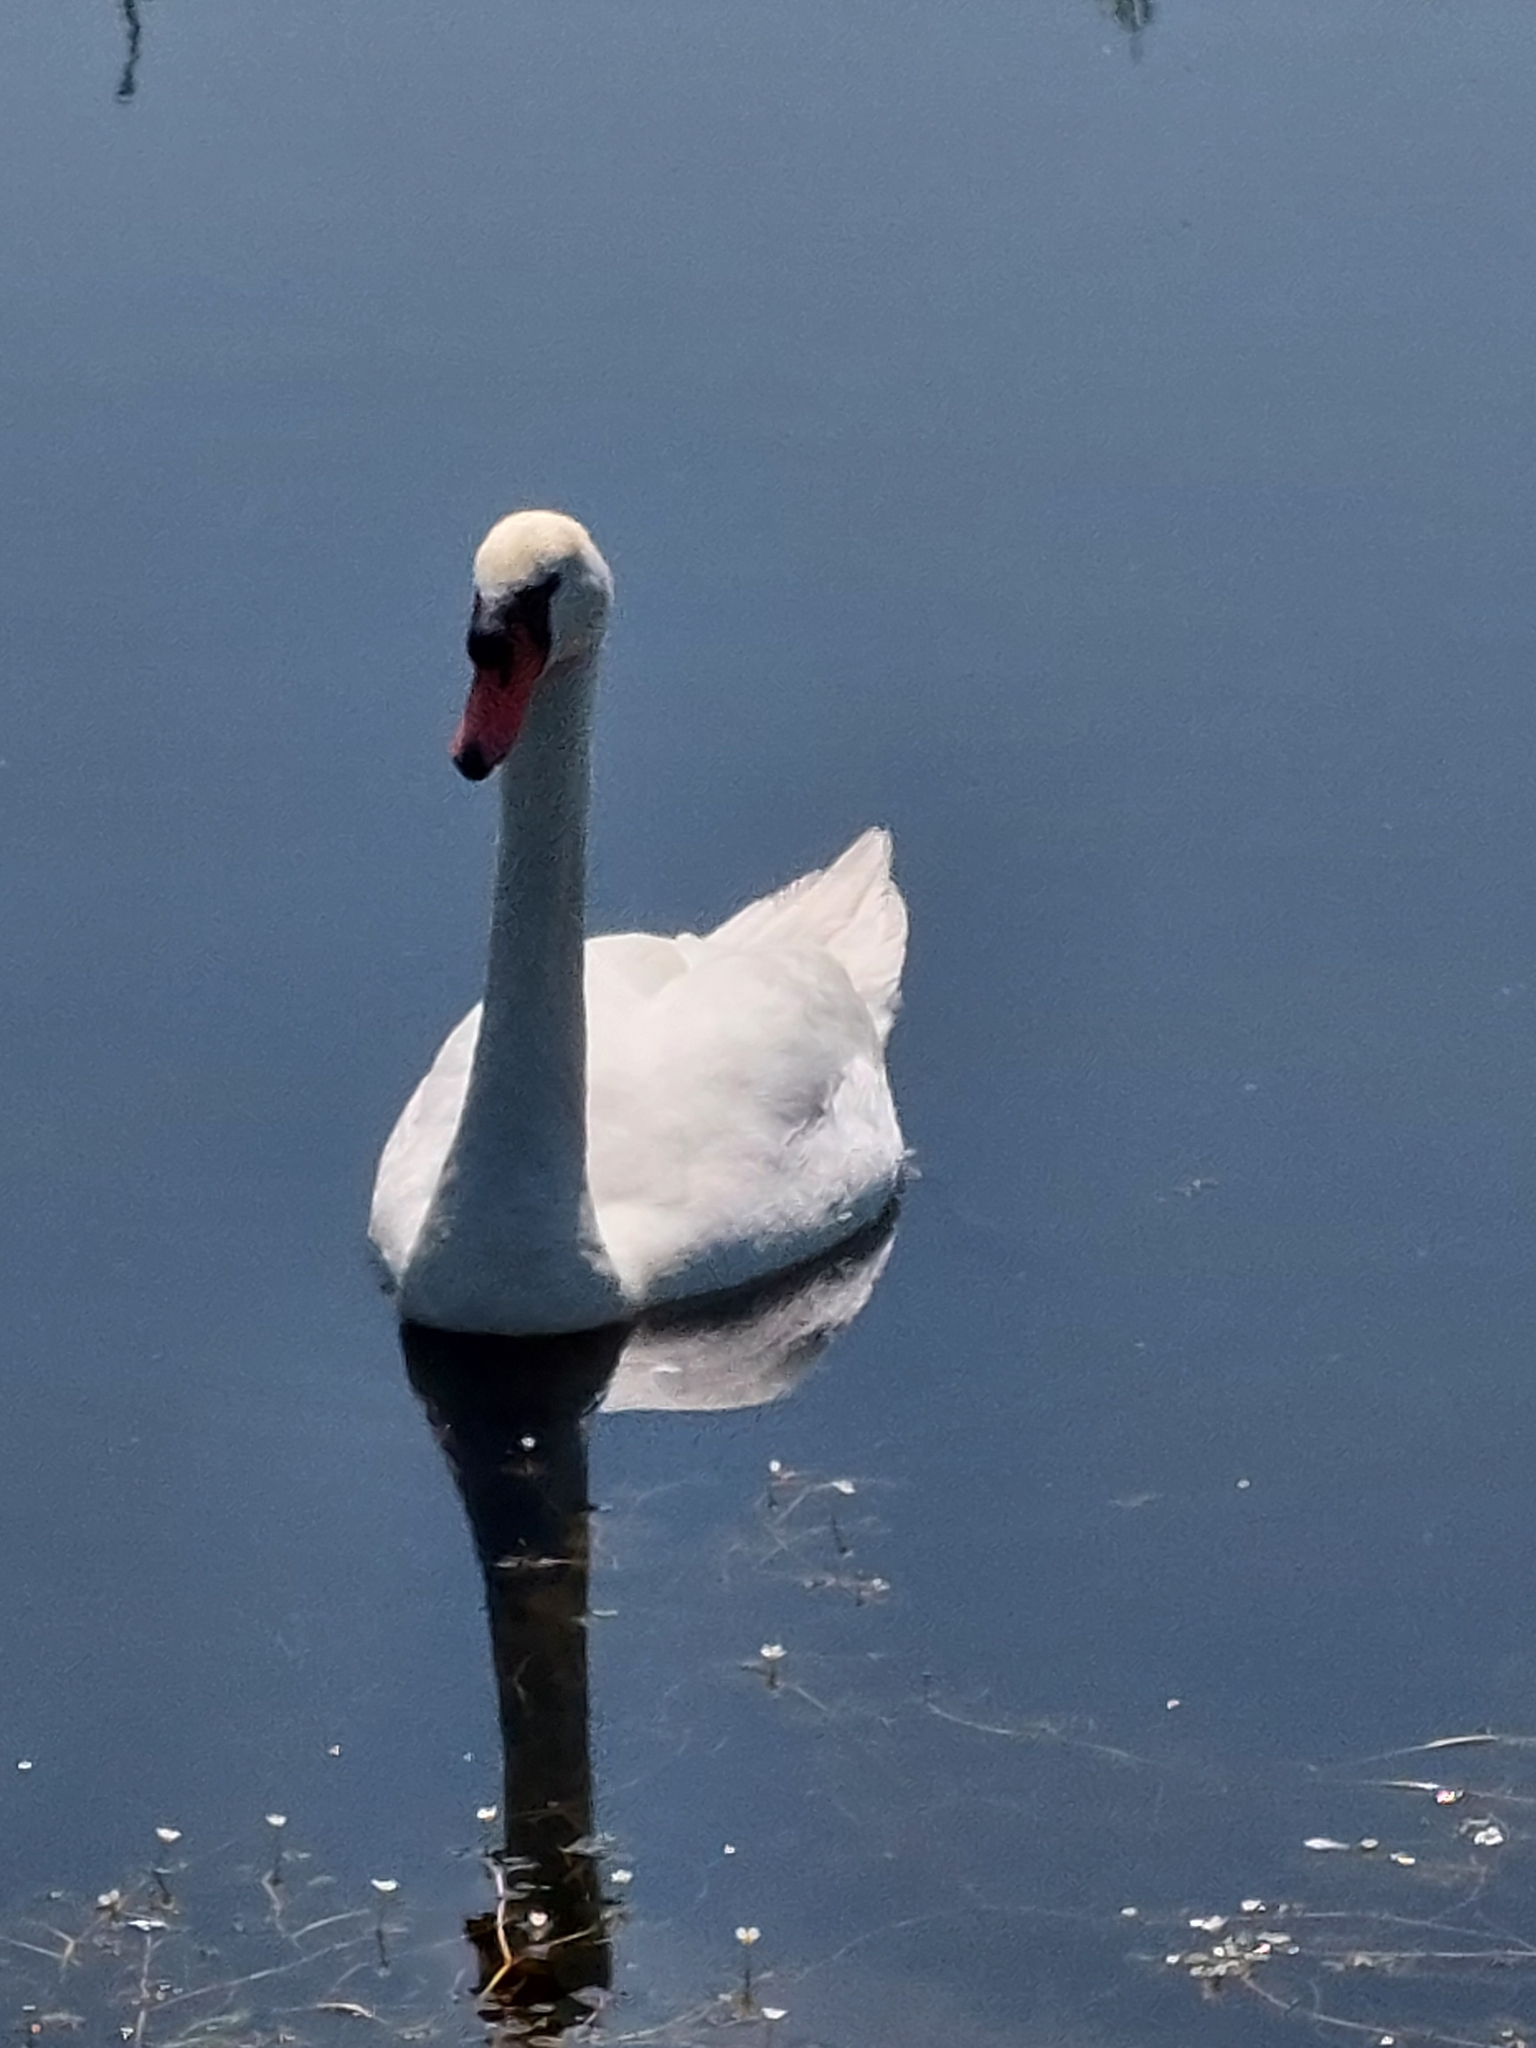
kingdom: Animalia
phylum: Chordata
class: Aves
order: Anseriformes
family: Anatidae
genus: Cygnus
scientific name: Cygnus olor
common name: Mute swan
